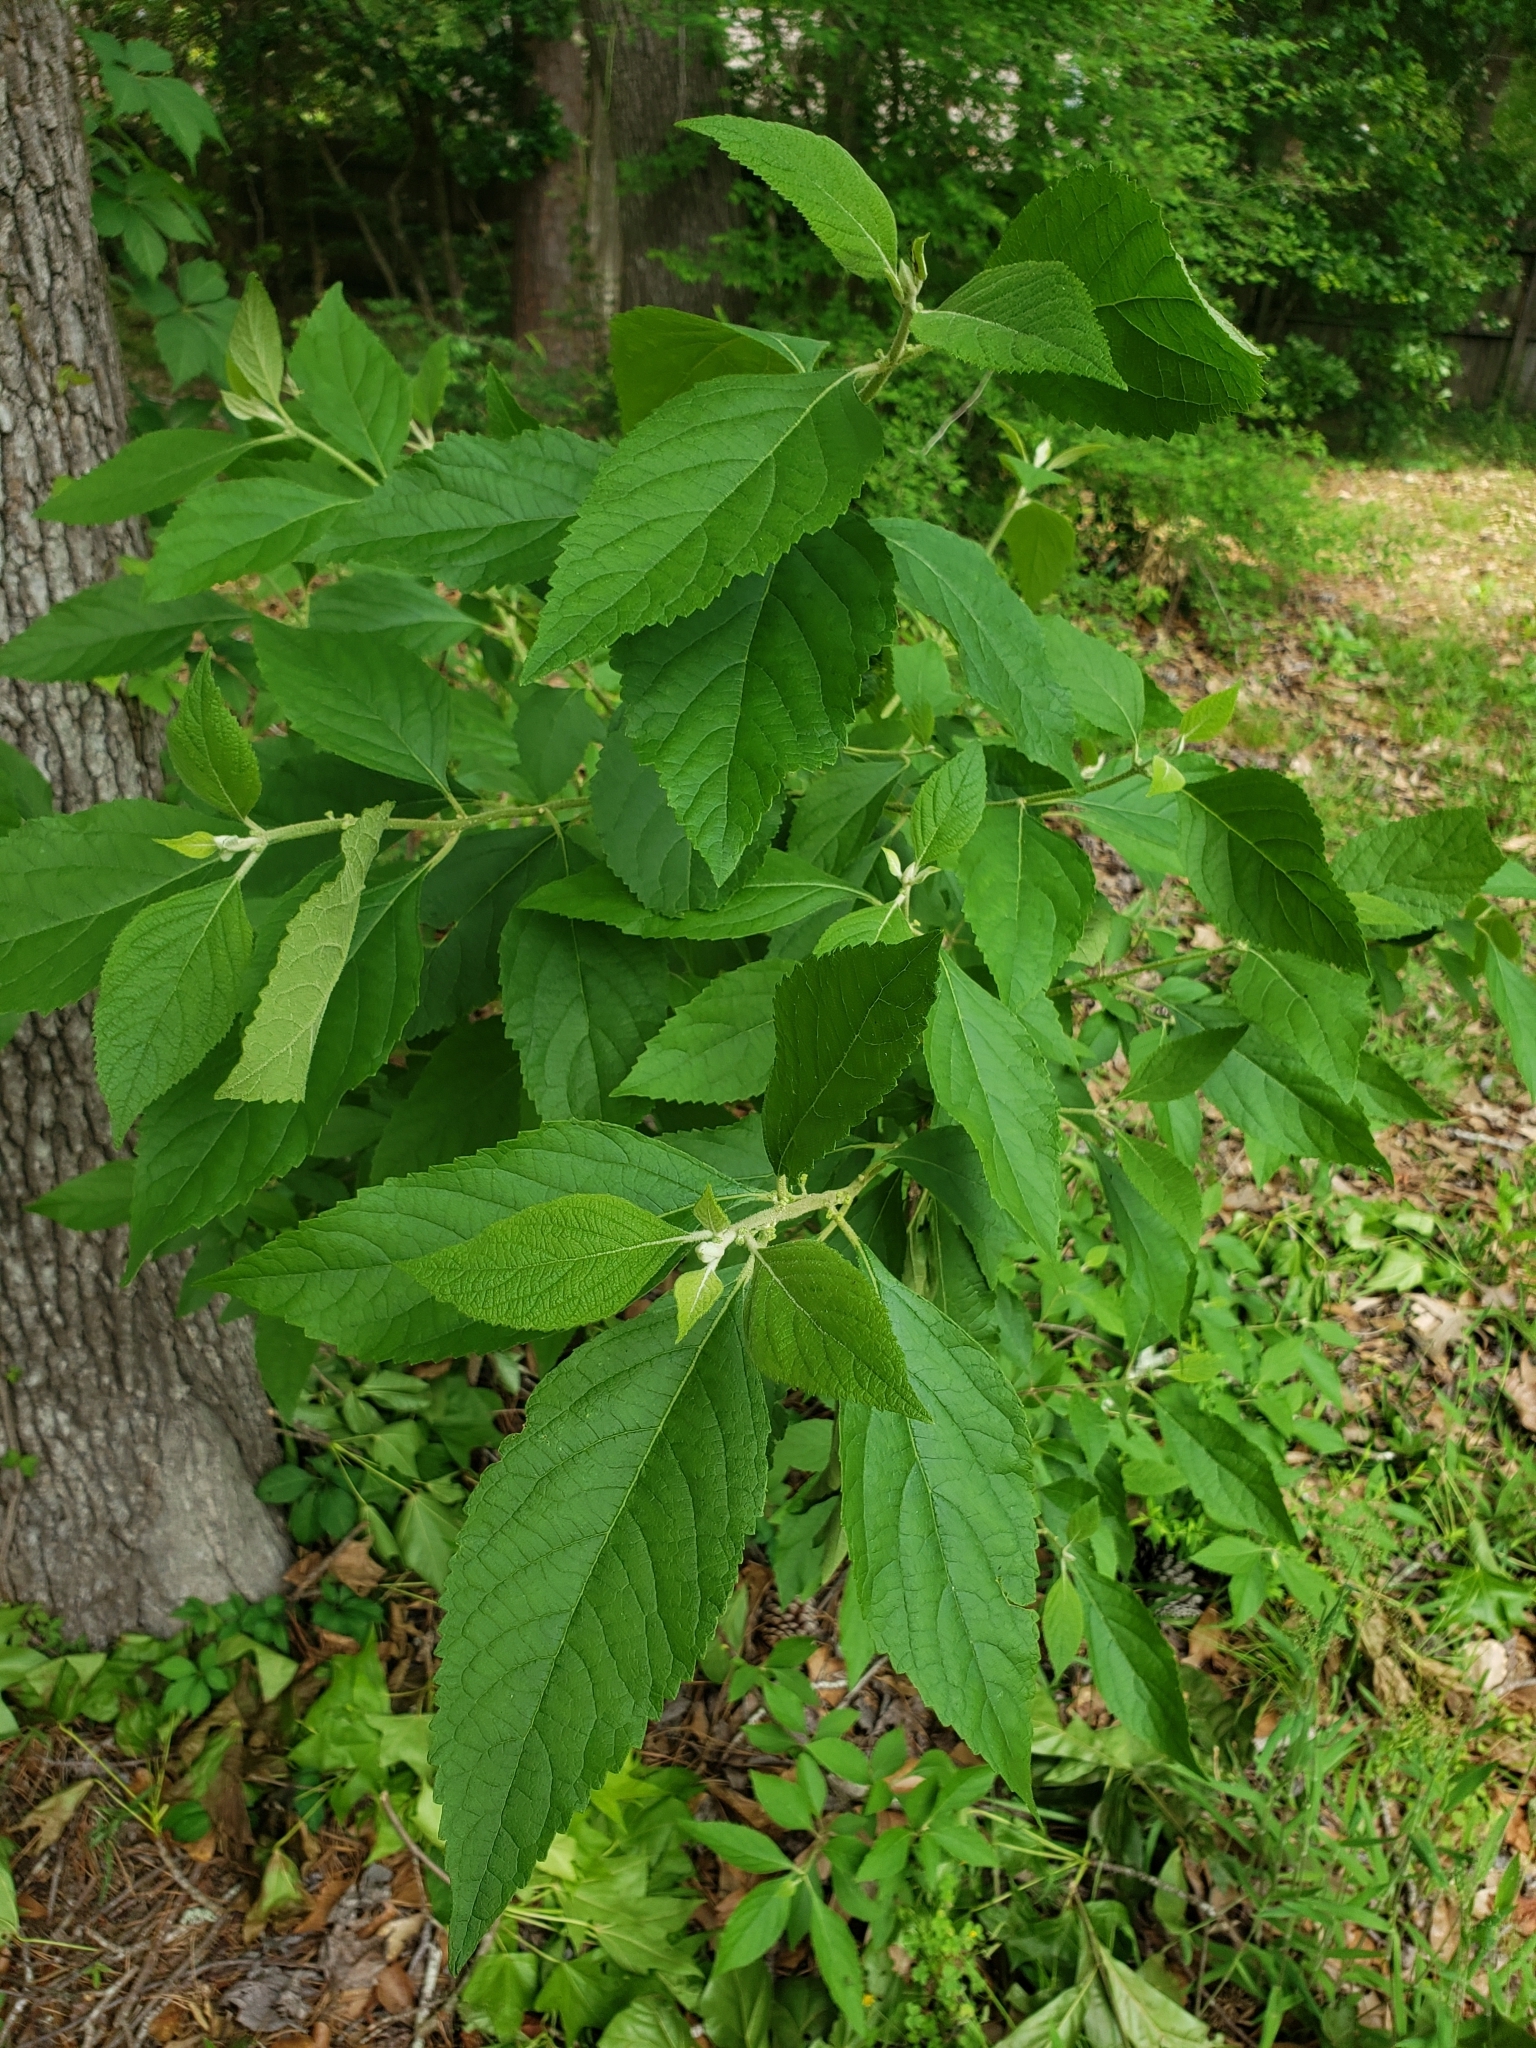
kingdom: Plantae
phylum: Tracheophyta
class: Magnoliopsida
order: Lamiales
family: Lamiaceae
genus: Callicarpa
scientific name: Callicarpa americana
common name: American beautyberry
